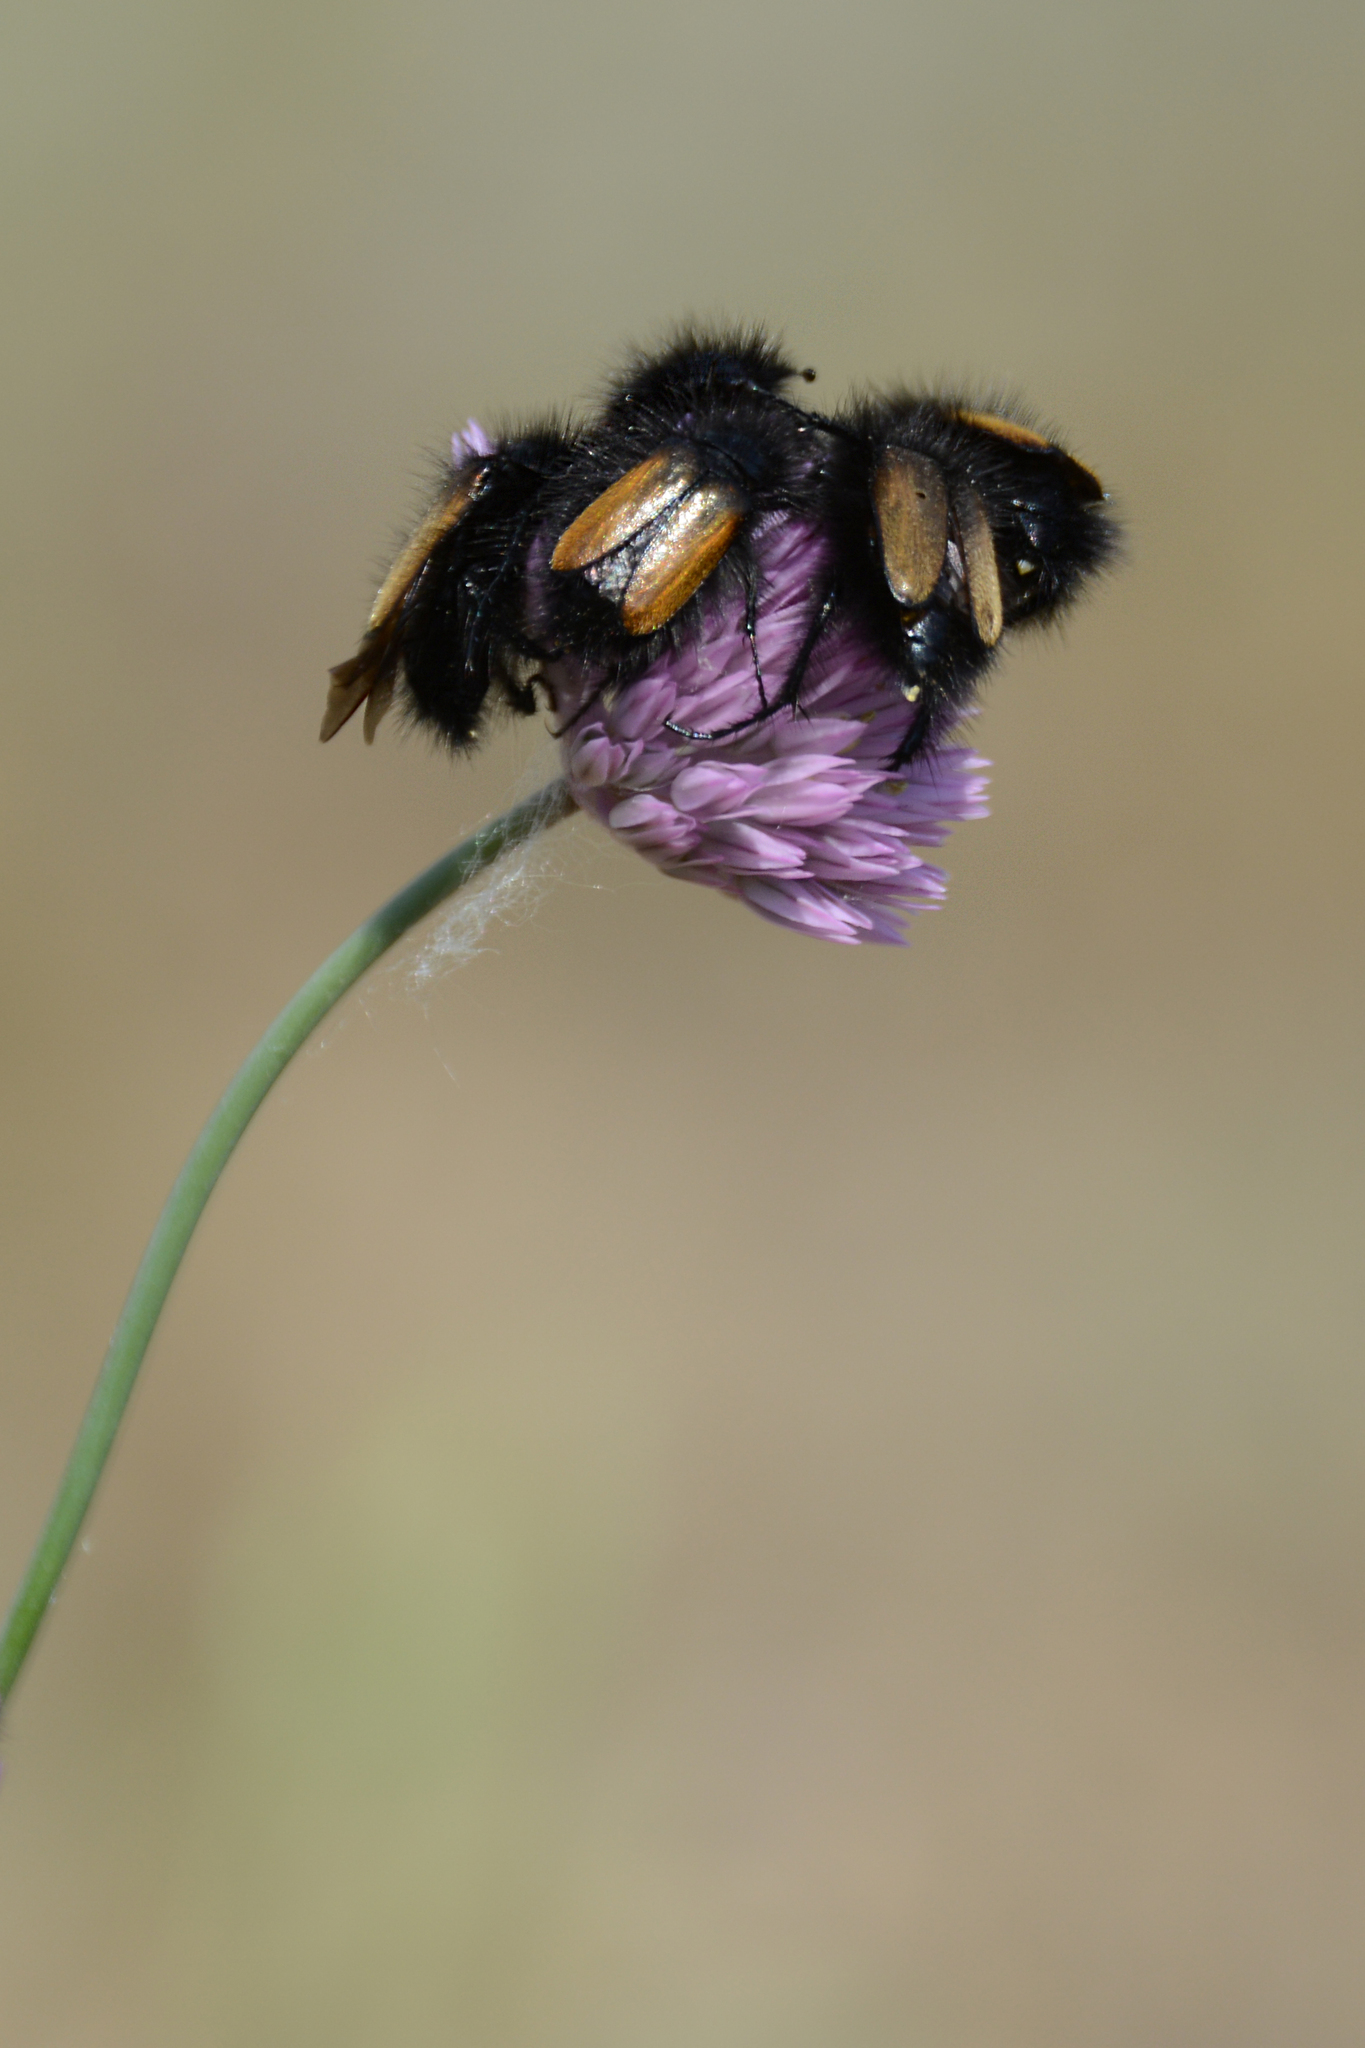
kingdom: Animalia
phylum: Arthropoda
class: Insecta
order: Coleoptera
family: Glaphyridae
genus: Eulasia
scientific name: Eulasia bombyliformis
